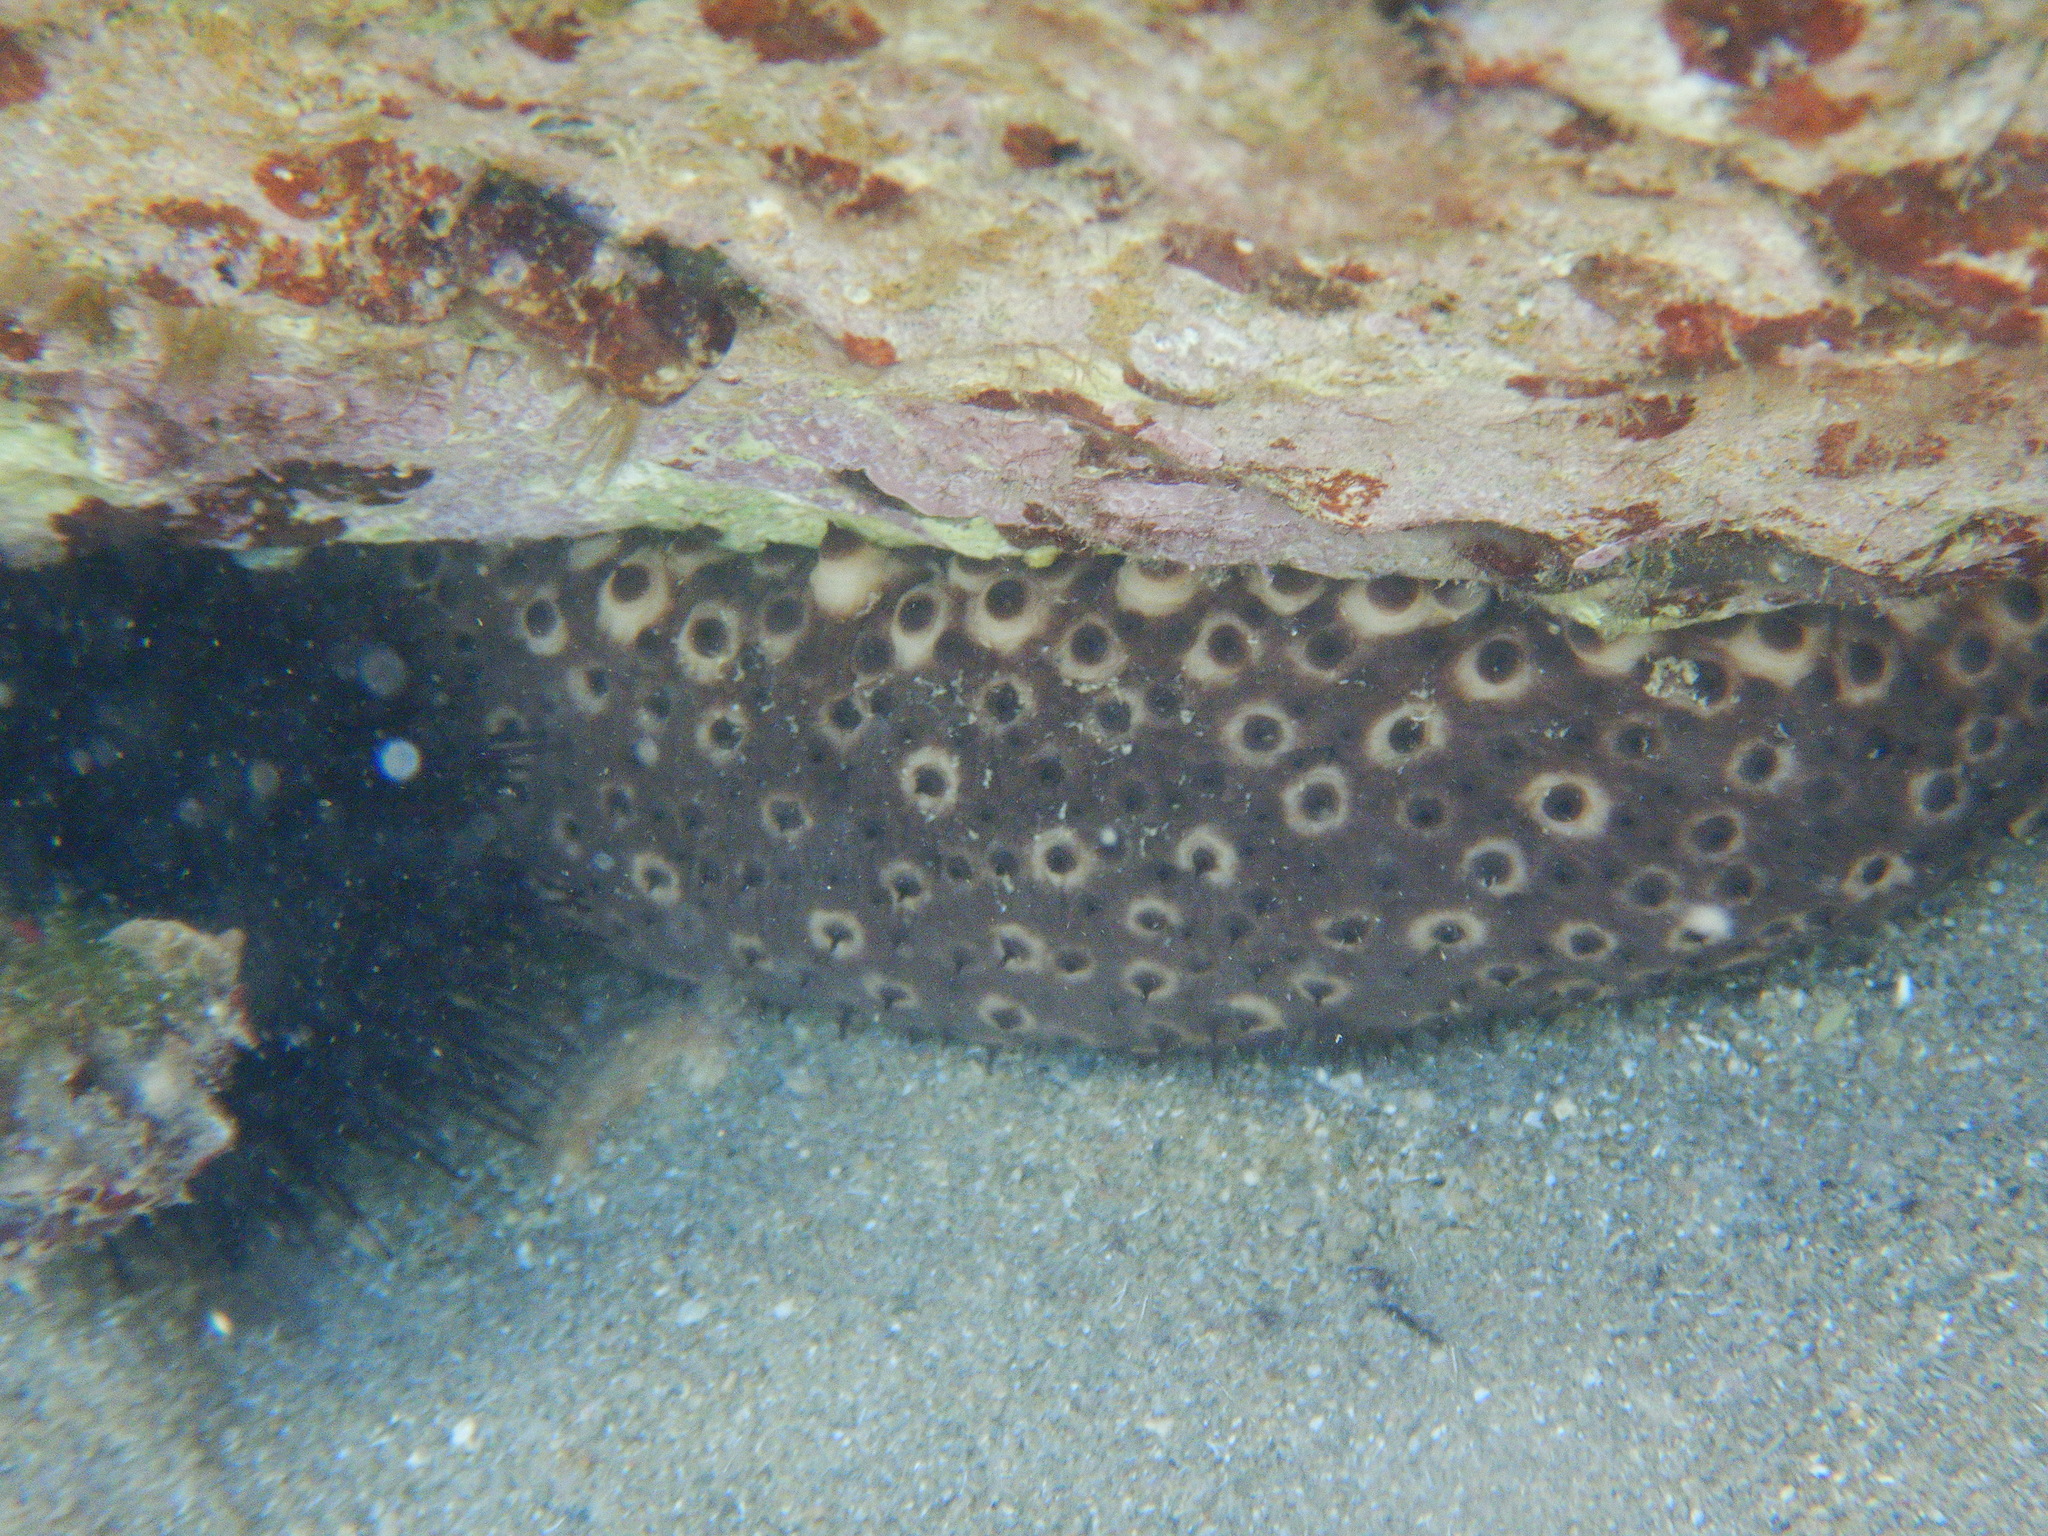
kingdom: Animalia
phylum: Echinodermata
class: Holothuroidea
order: Holothuriida
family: Holothuriidae
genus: Holothuria
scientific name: Holothuria sanctori
